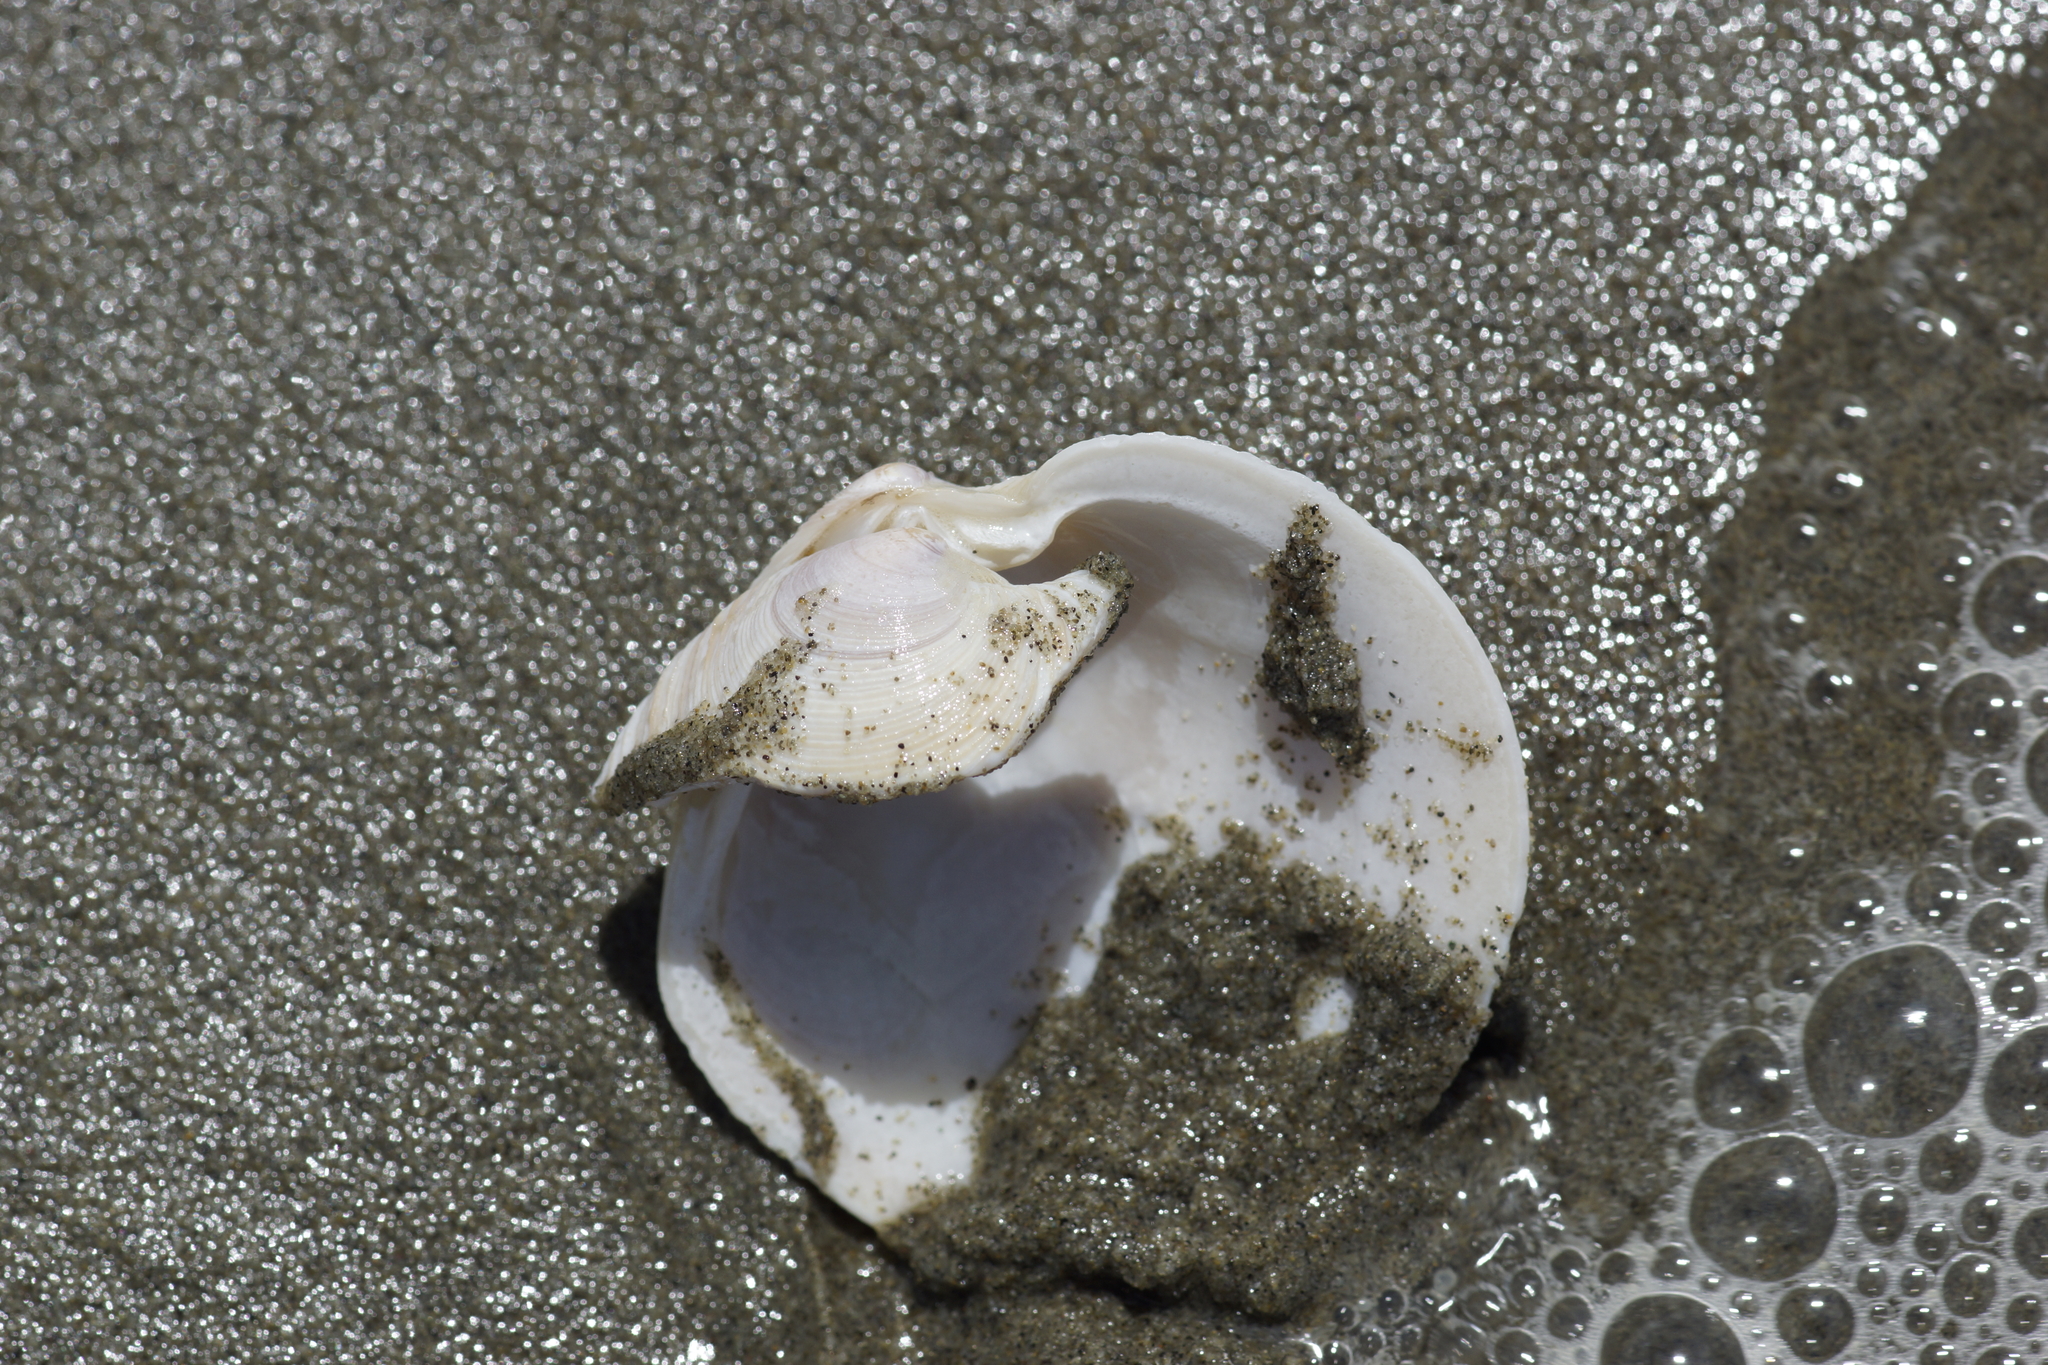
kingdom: Animalia
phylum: Mollusca
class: Bivalvia
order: Venerida
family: Veneridae
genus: Dosinia
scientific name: Dosinia anus
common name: Old-woman dosinia
